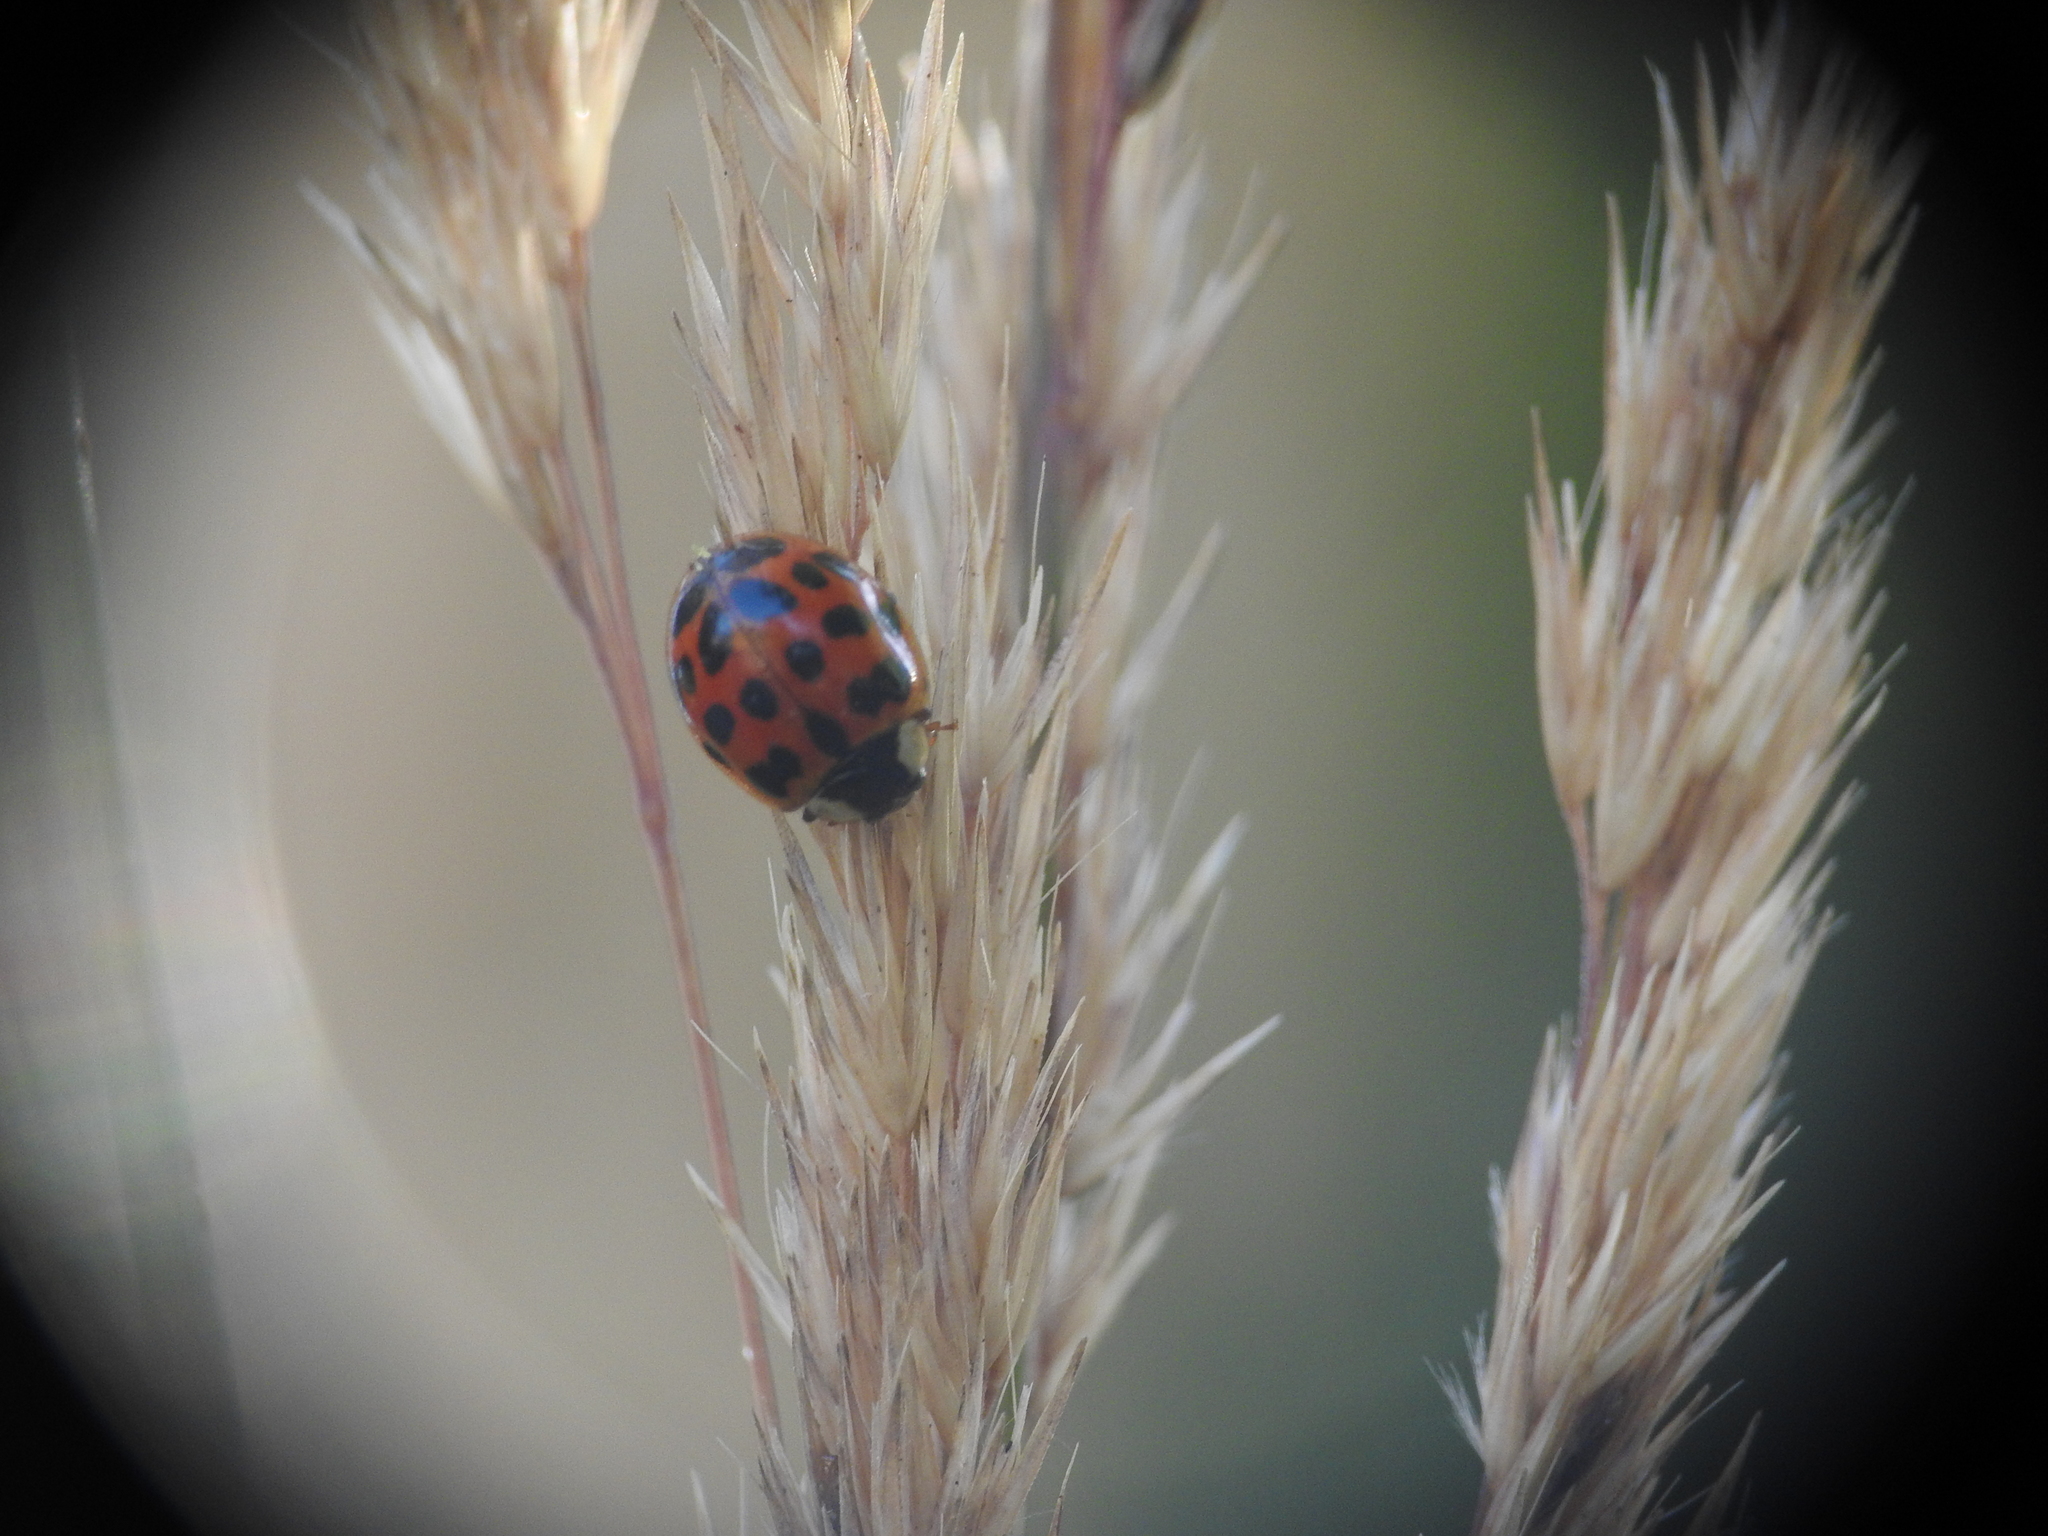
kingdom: Animalia
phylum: Arthropoda
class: Insecta
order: Coleoptera
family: Coccinellidae
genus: Harmonia
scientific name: Harmonia axyridis
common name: Harlequin ladybird
